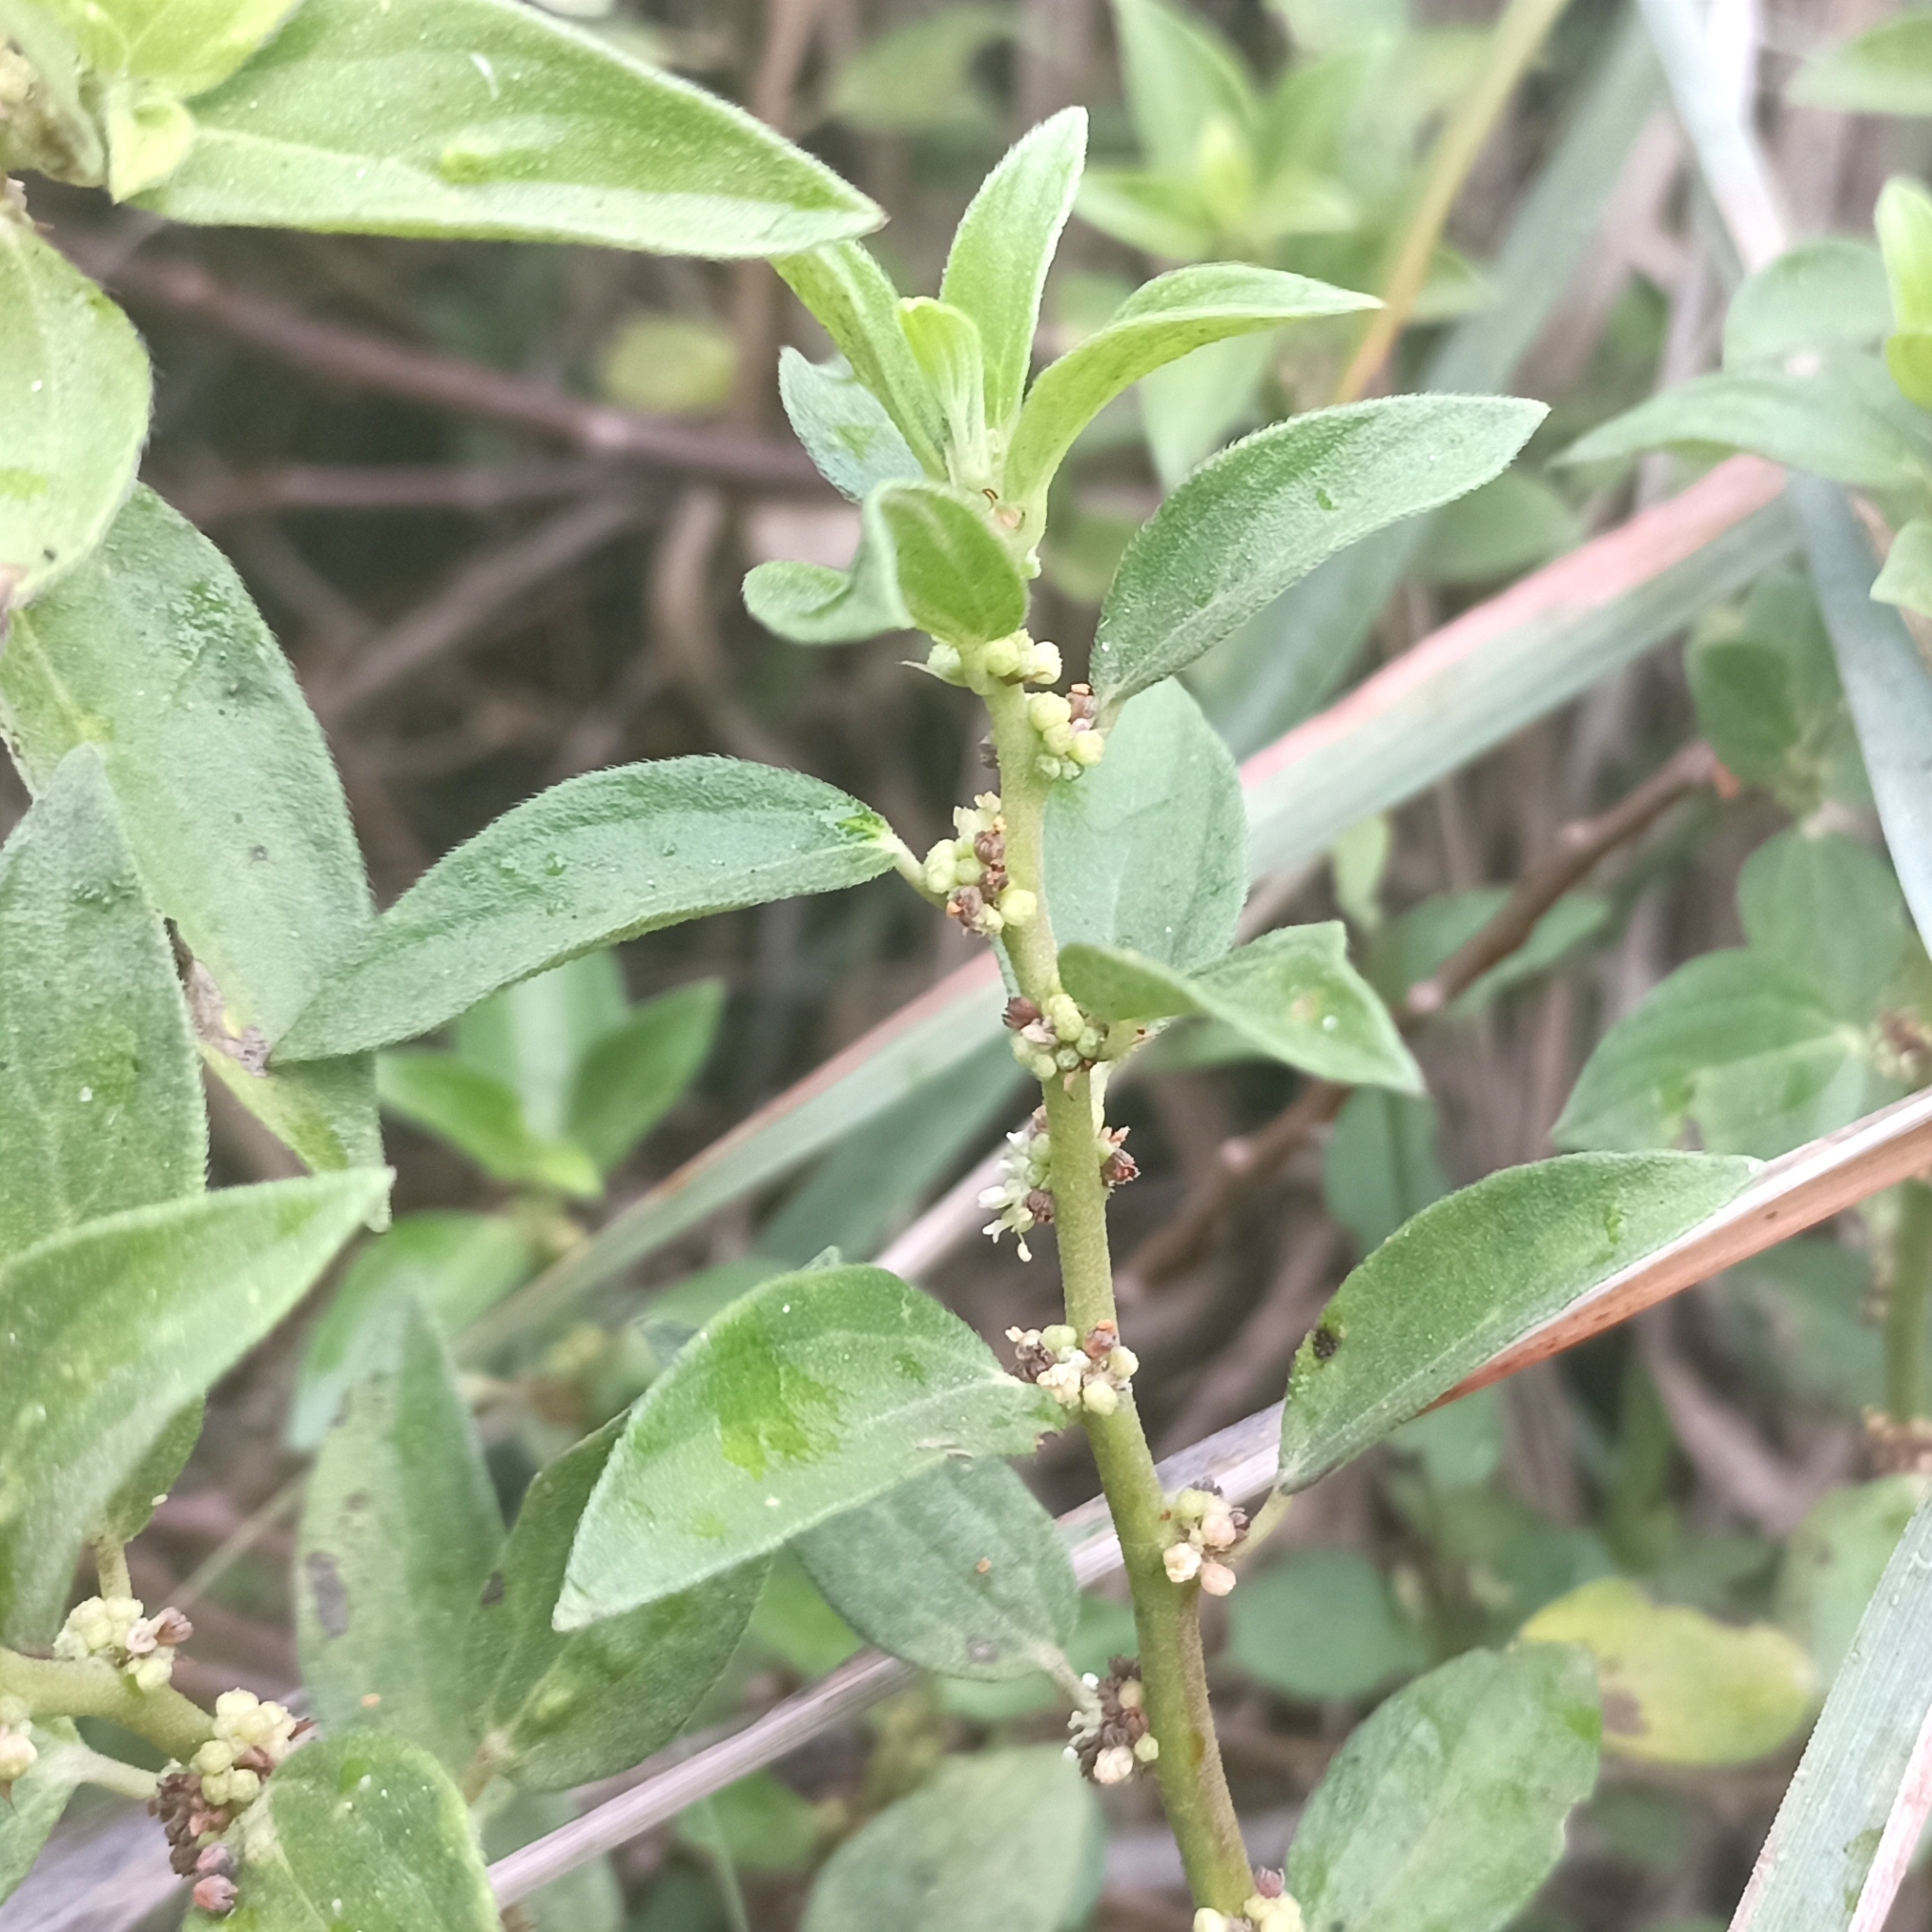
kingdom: Plantae
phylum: Tracheophyta
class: Magnoliopsida
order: Rosales
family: Urticaceae
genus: Pouzolzia
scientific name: Pouzolzia zeylanica
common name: Graceful pouzolzsbush
